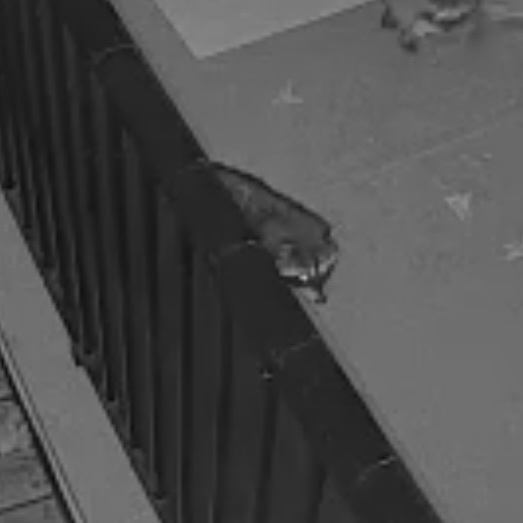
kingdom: Animalia
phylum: Chordata
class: Mammalia
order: Carnivora
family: Procyonidae
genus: Procyon
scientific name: Procyon lotor
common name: Raccoon
